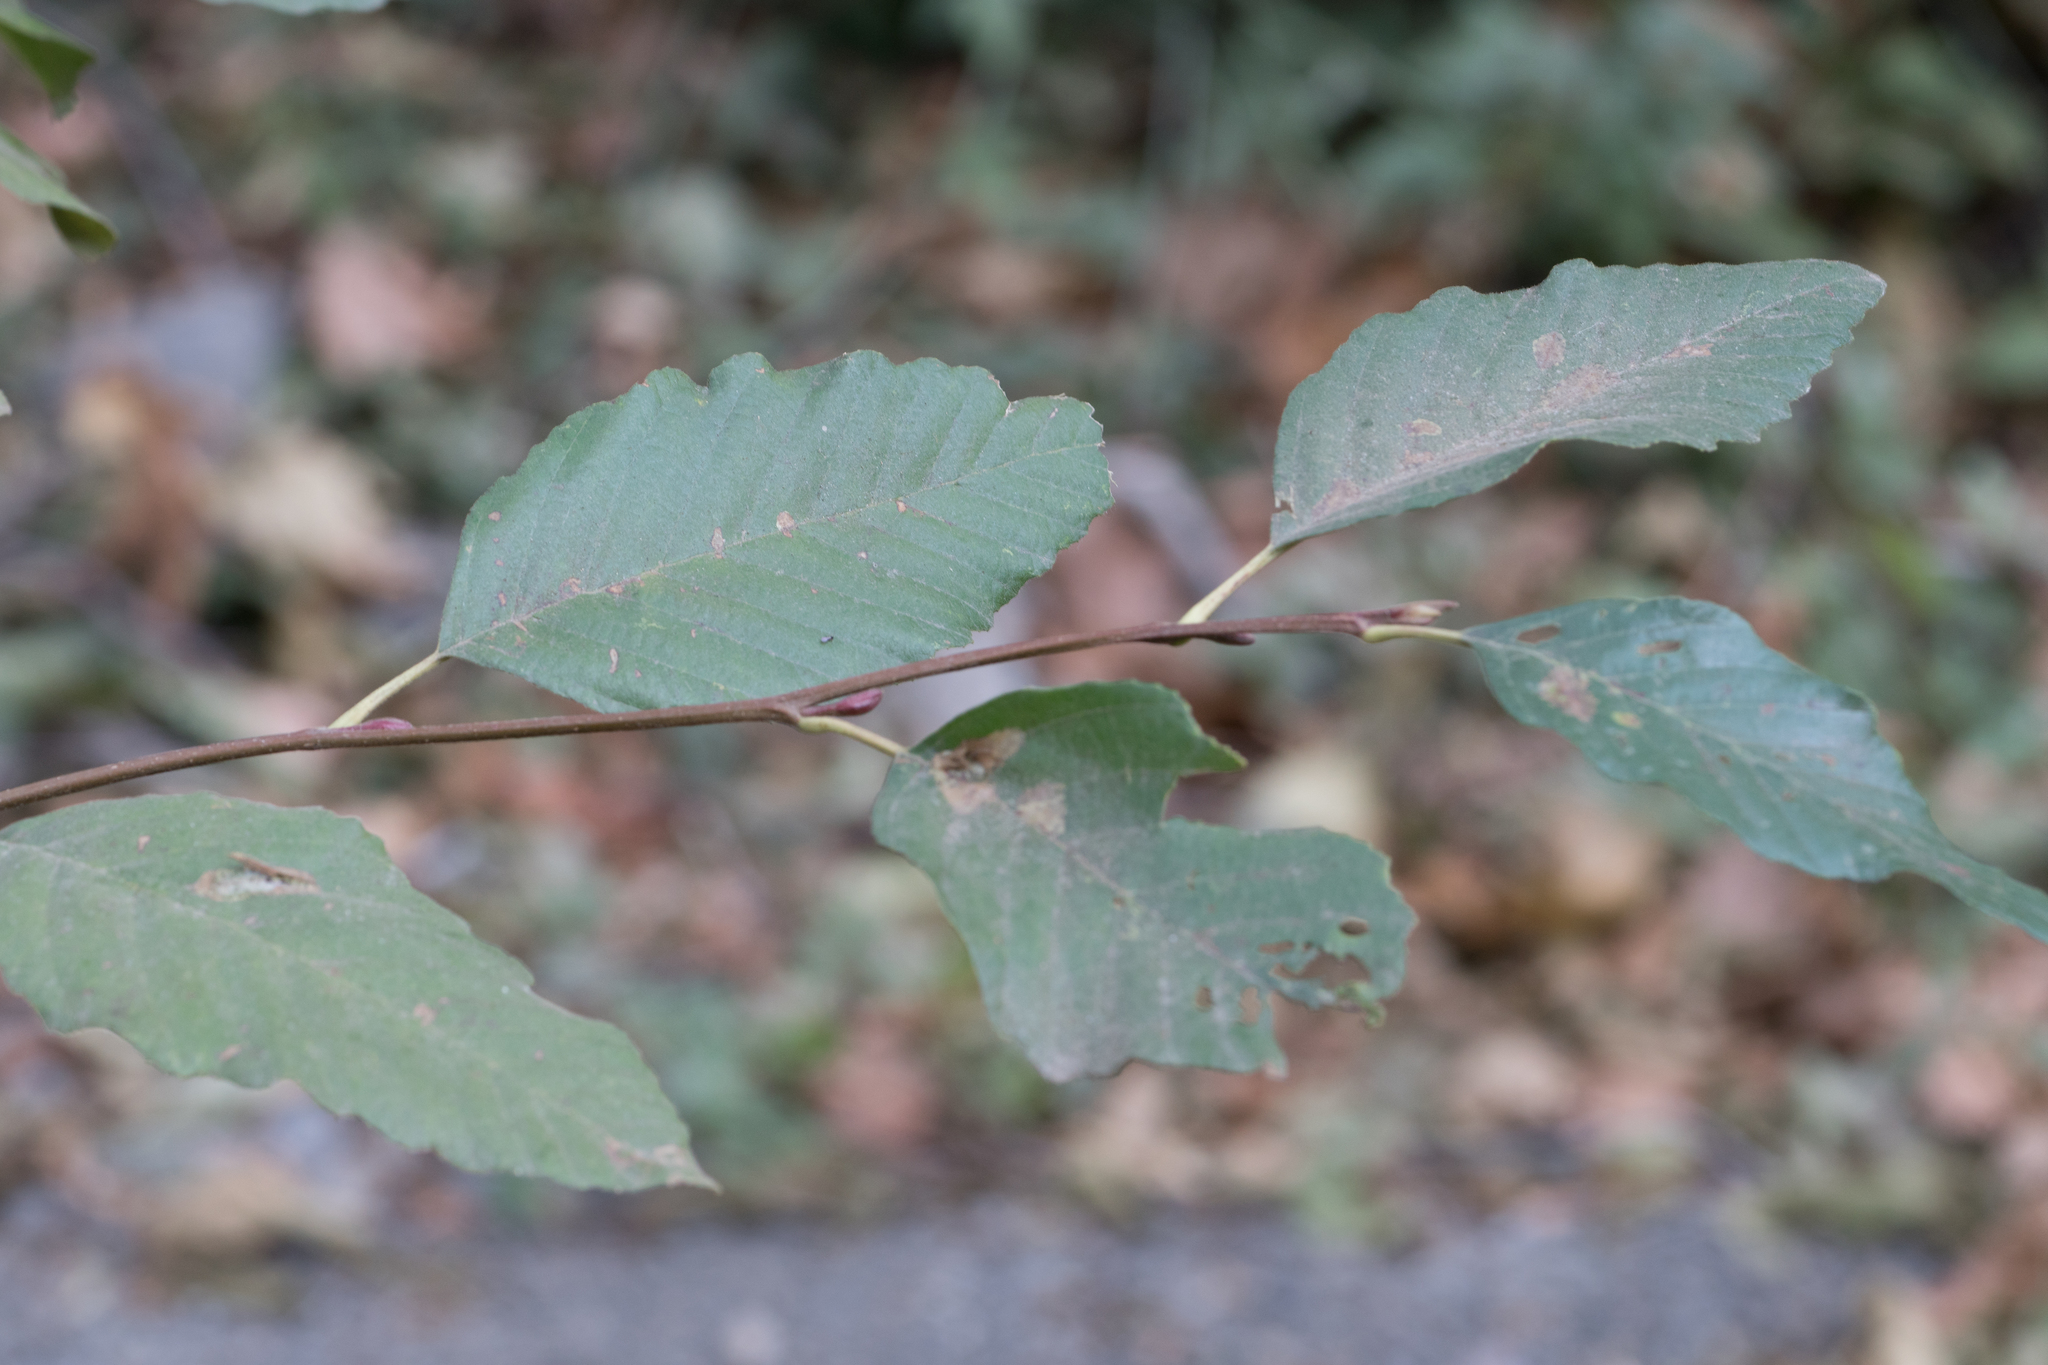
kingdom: Plantae
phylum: Tracheophyta
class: Magnoliopsida
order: Fagales
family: Betulaceae
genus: Alnus
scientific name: Alnus rhombifolia
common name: California alder
